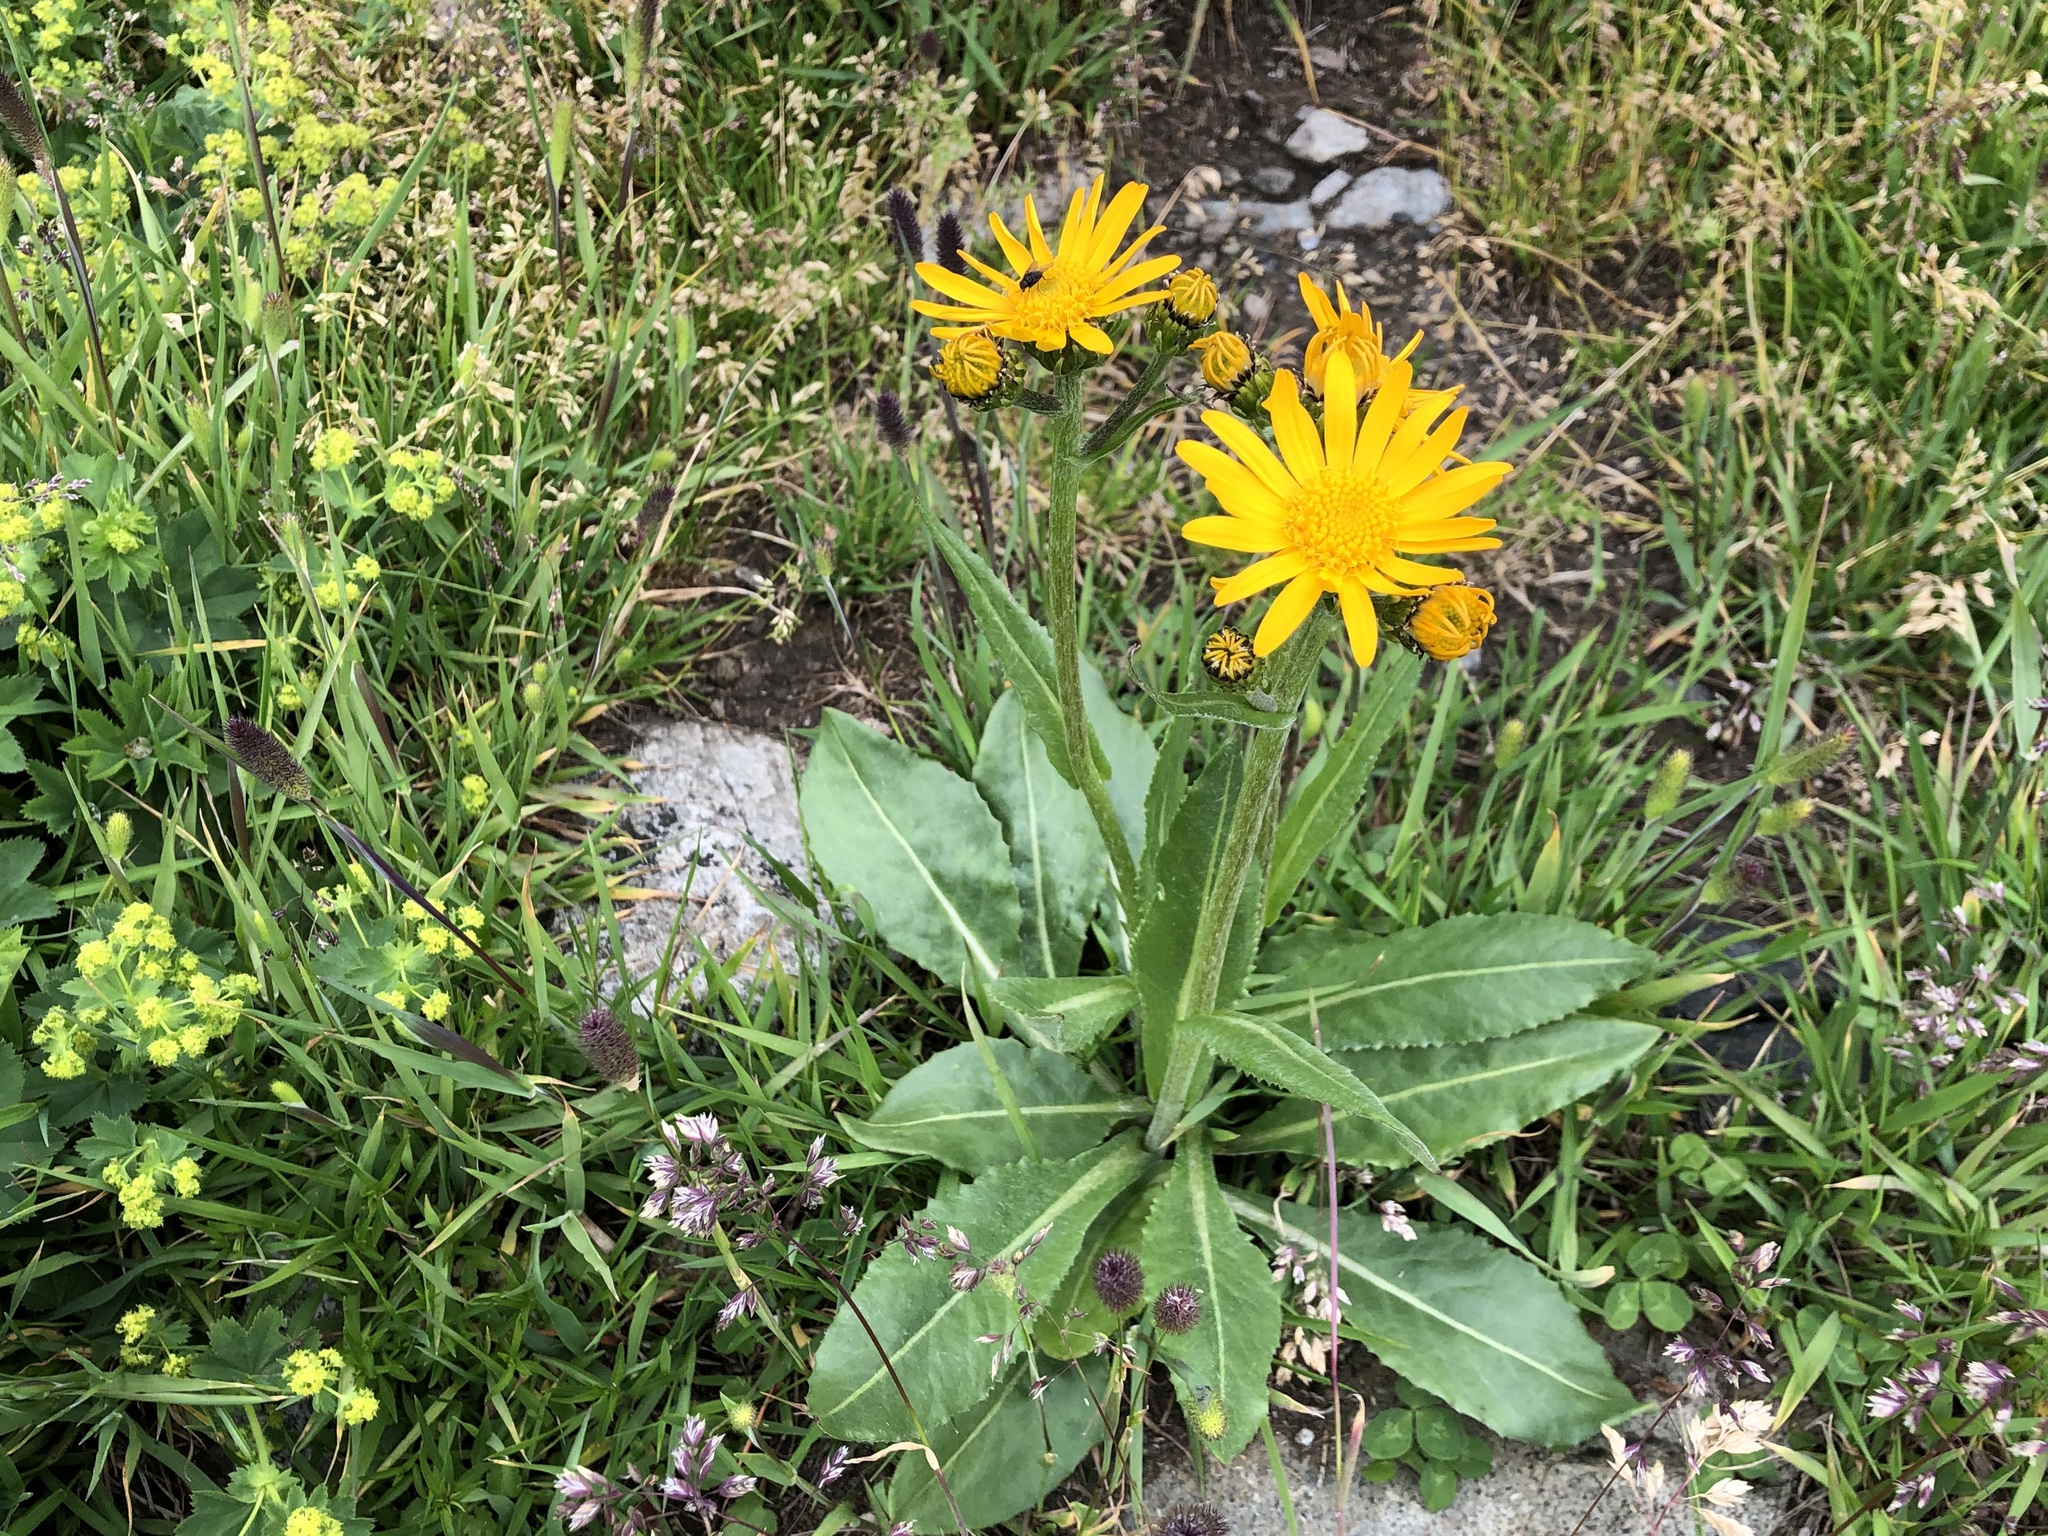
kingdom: Plantae
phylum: Tracheophyta
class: Magnoliopsida
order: Asterales
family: Asteraceae
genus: Senecio
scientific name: Senecio doronicum
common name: Chamois ragwort
